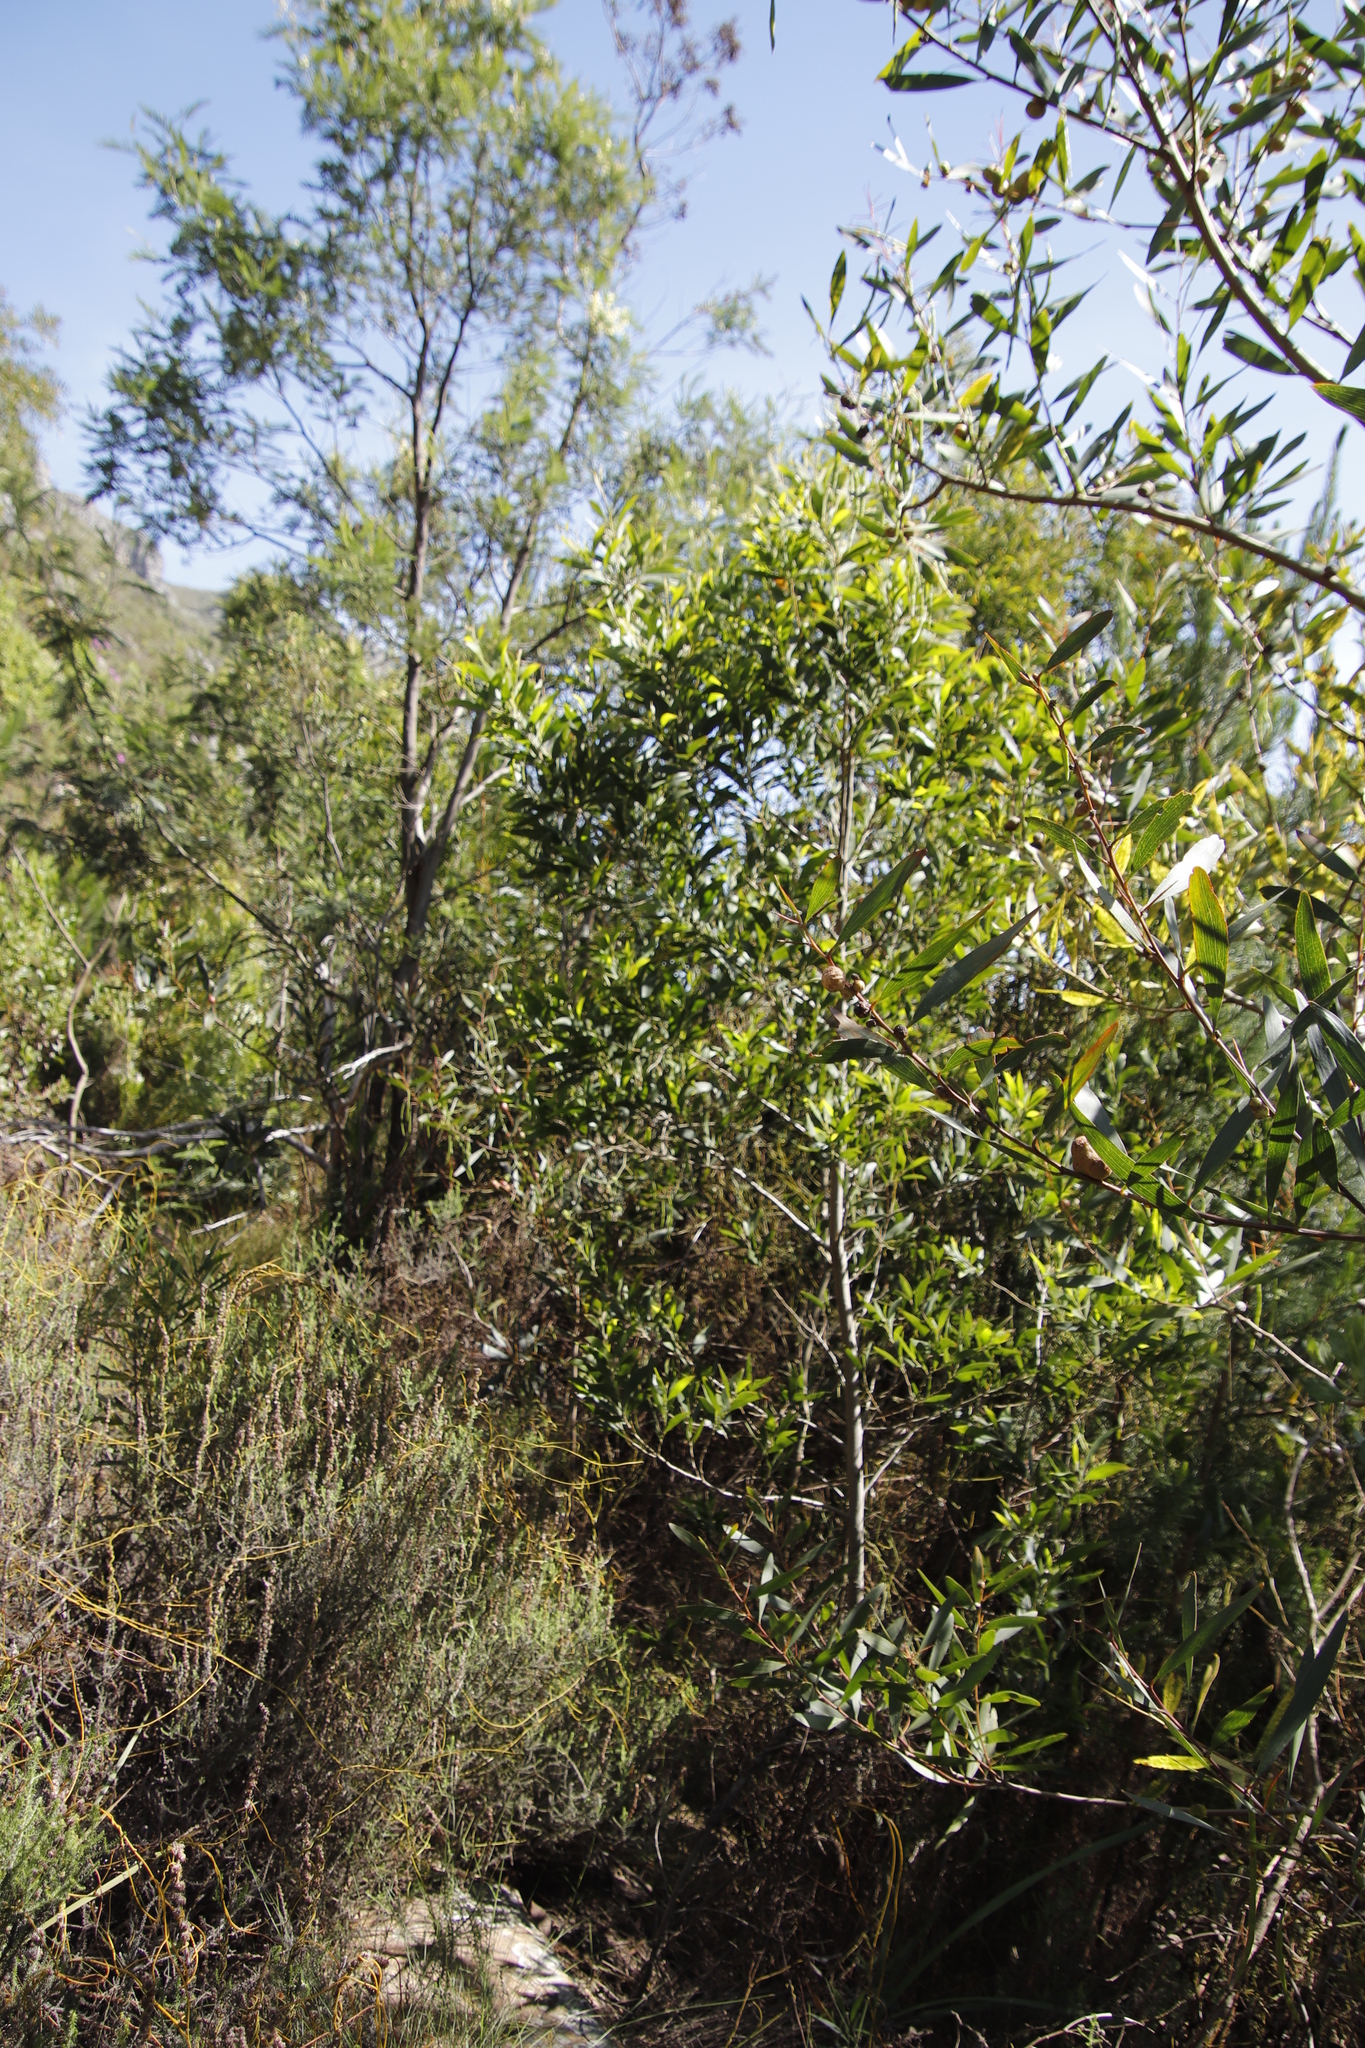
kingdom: Plantae
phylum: Tracheophyta
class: Magnoliopsida
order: Fabales
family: Fabaceae
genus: Acacia
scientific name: Acacia longifolia
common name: Sydney golden wattle
